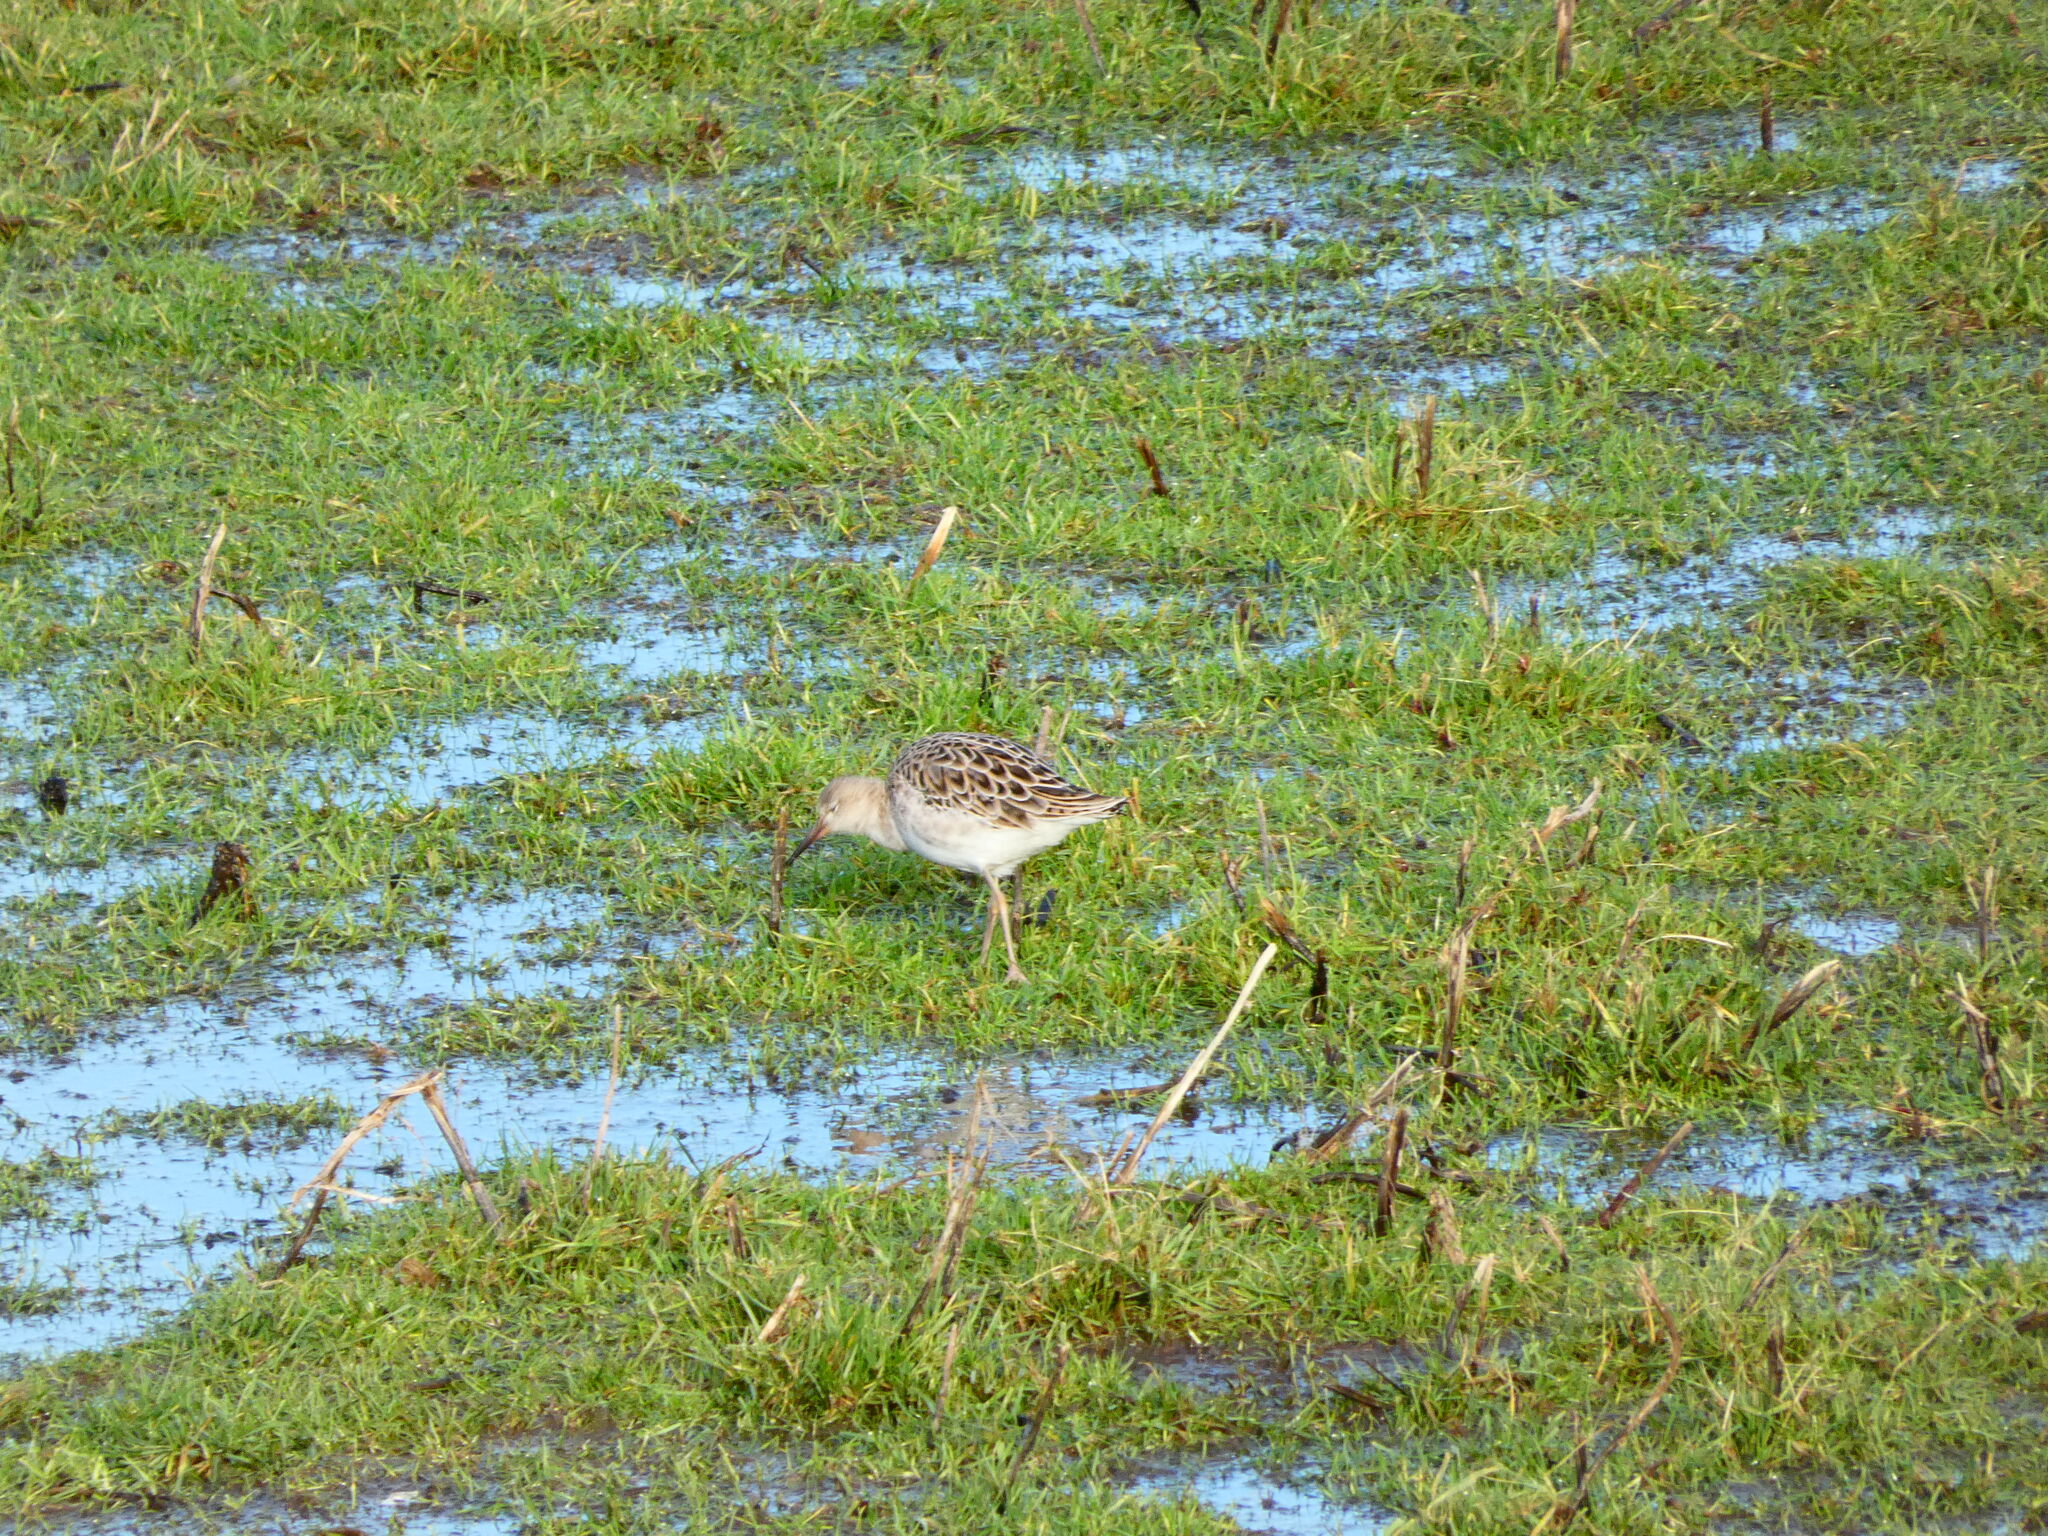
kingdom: Animalia
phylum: Chordata
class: Aves
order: Charadriiformes
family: Scolopacidae
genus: Calidris
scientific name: Calidris pugnax
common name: Ruff
